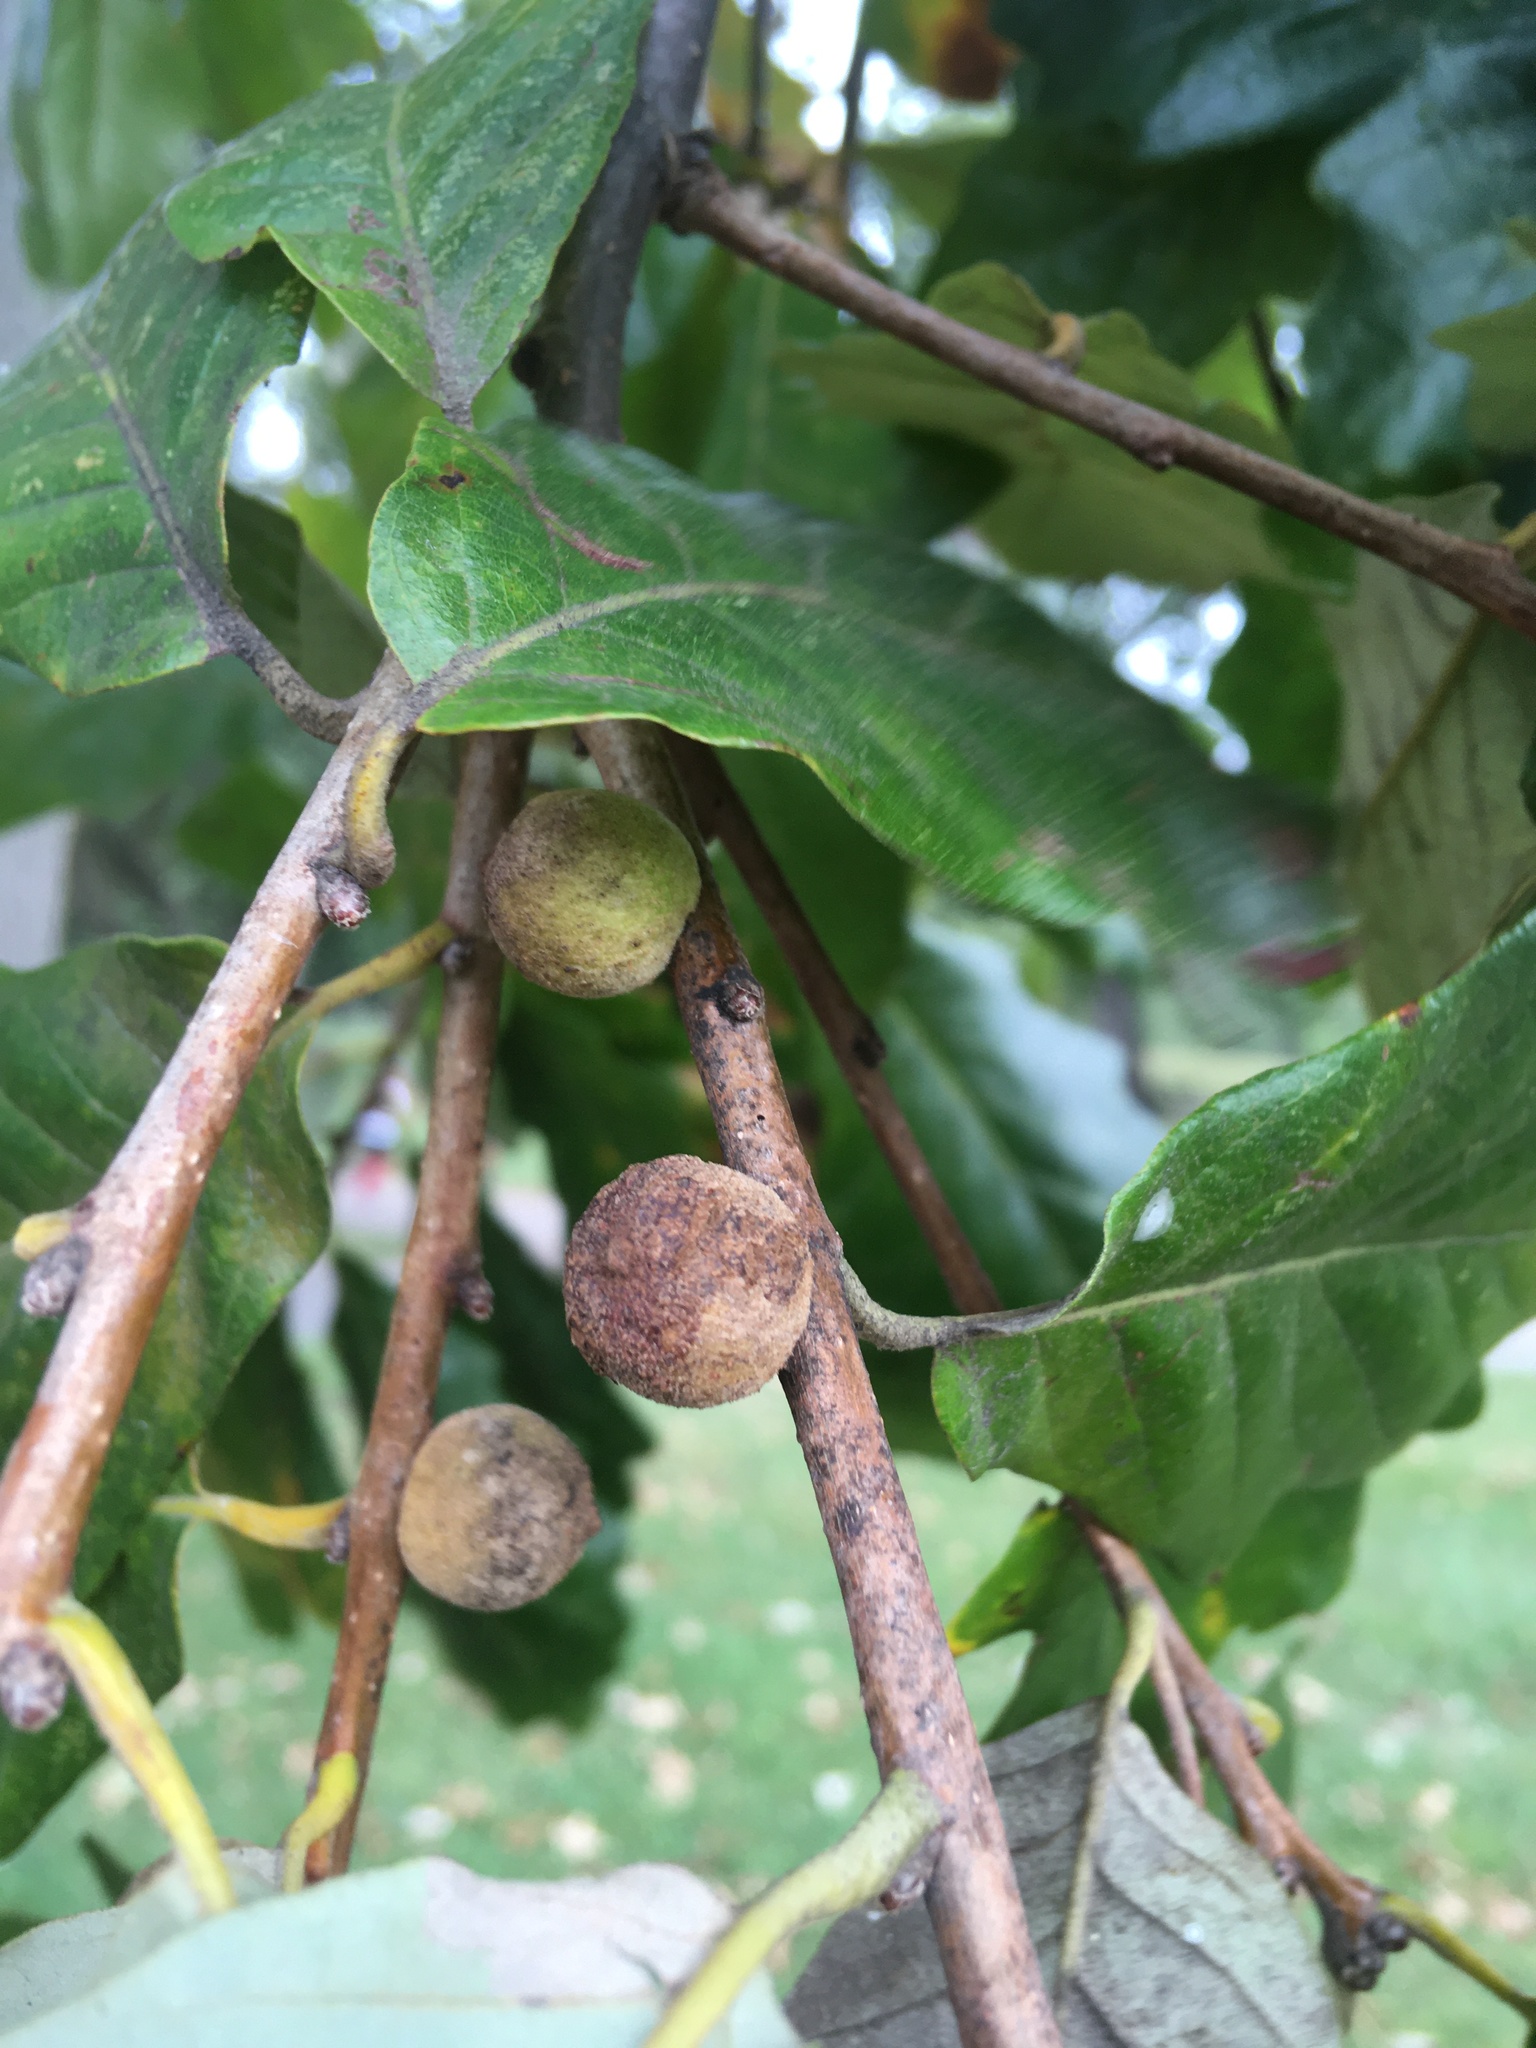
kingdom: Animalia
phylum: Arthropoda
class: Insecta
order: Hymenoptera
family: Cynipidae
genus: Disholcaspis
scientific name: Disholcaspis
